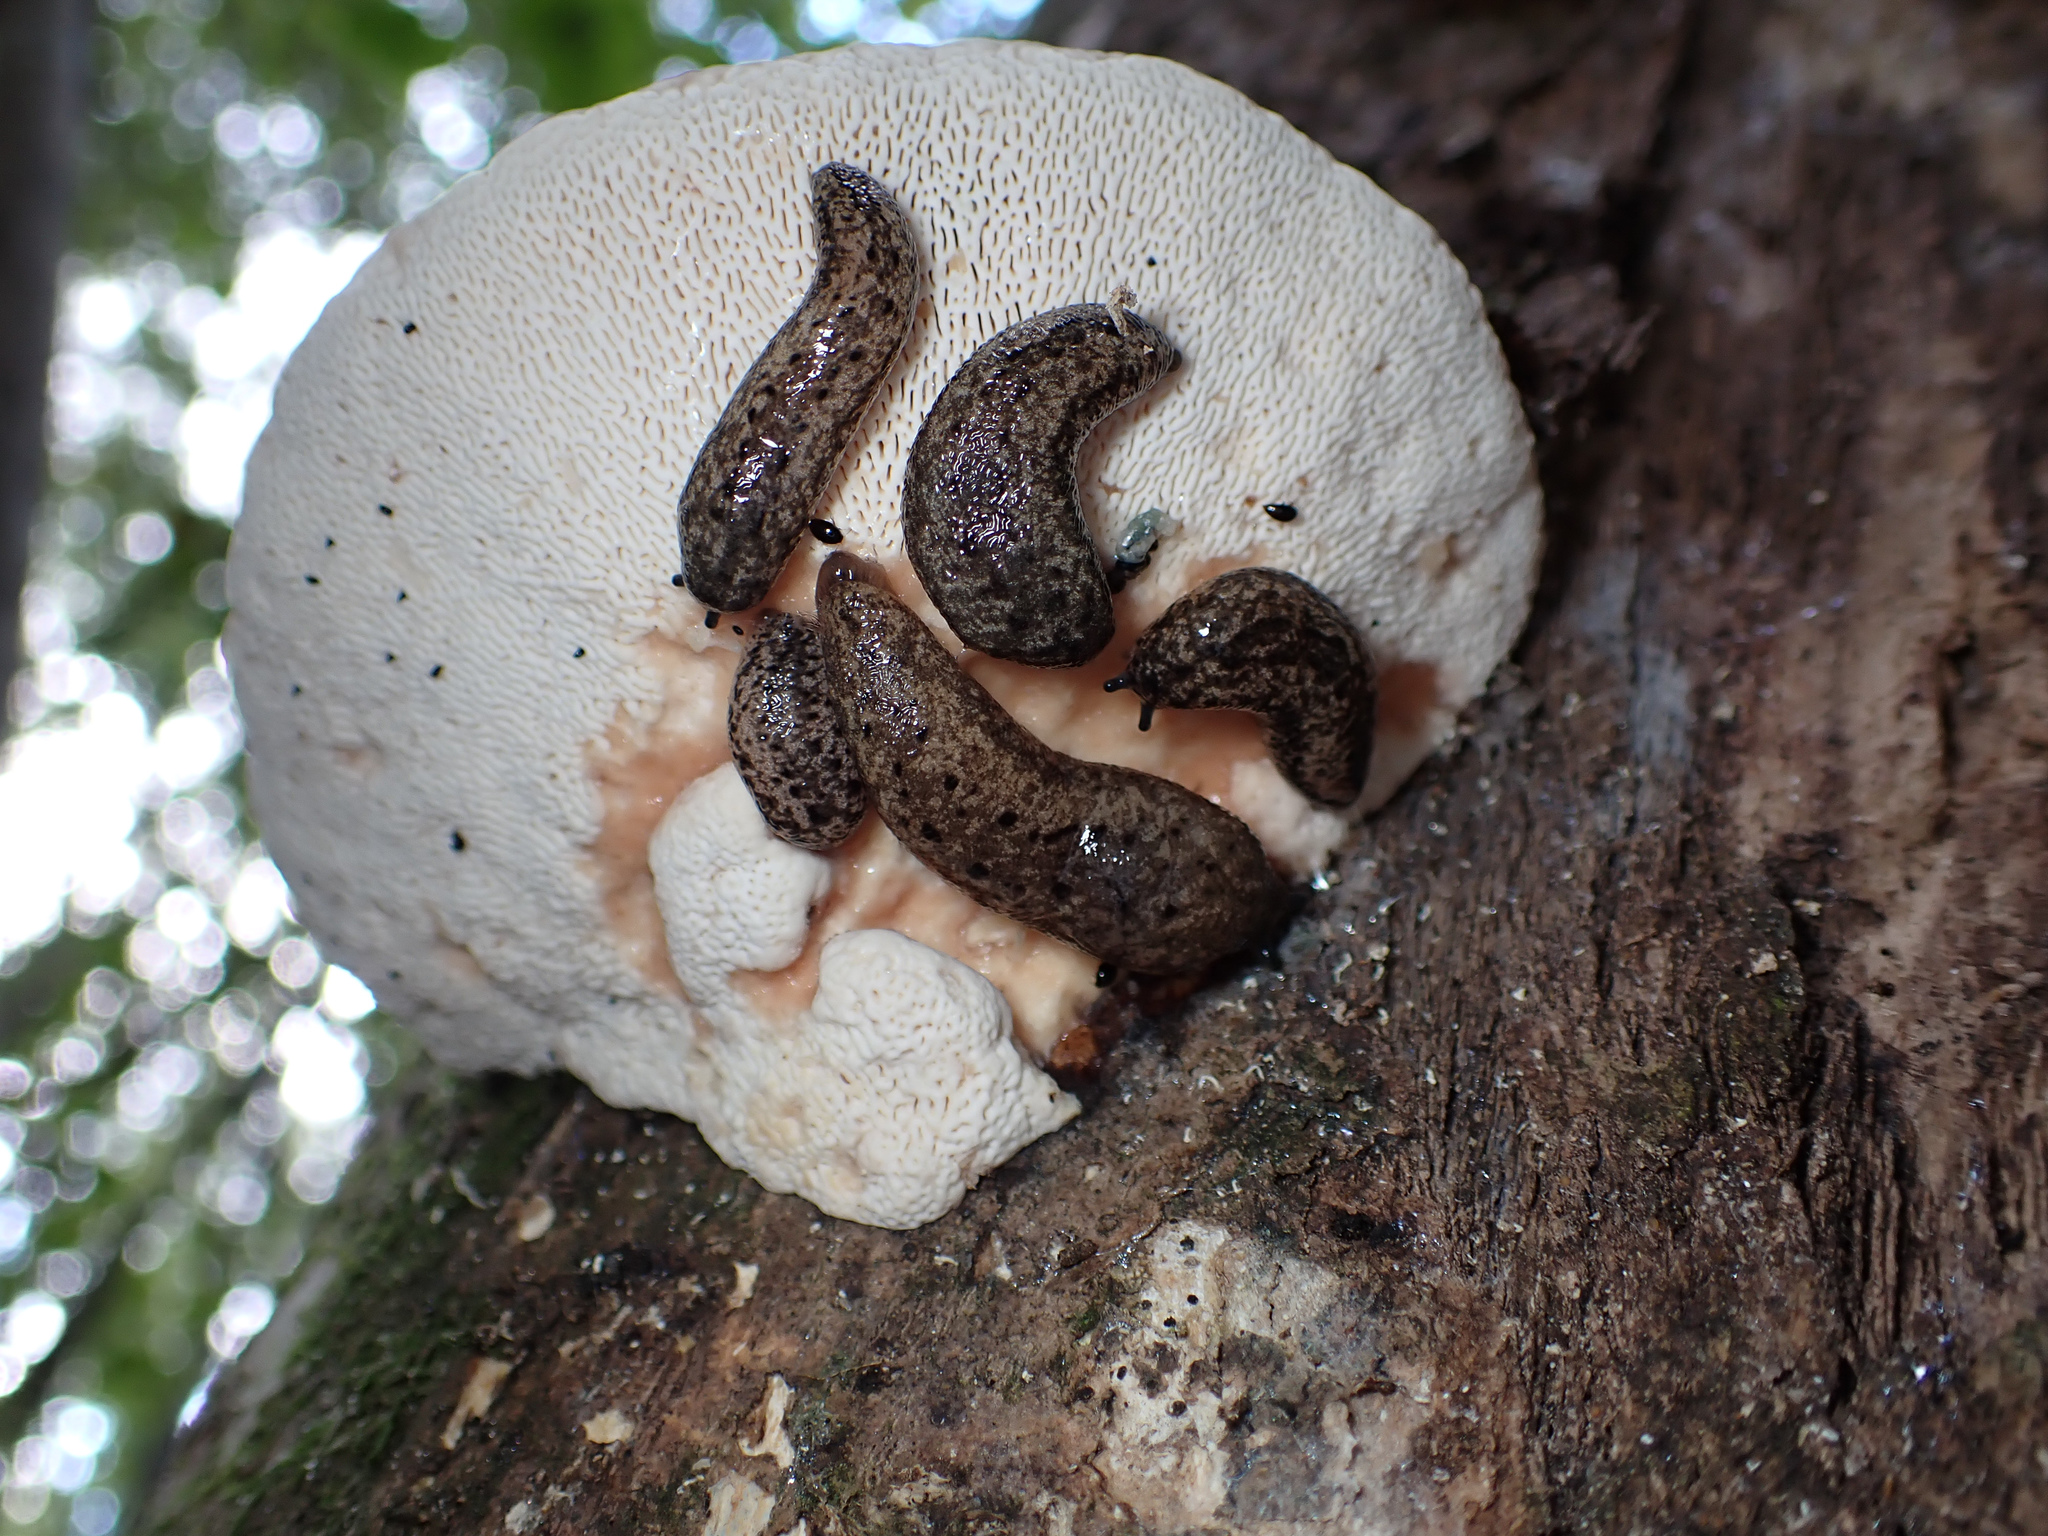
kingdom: Animalia
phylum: Mollusca
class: Gastropoda
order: Stylommatophora
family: Philomycidae
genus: Philomycus
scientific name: Philomycus carolinianus
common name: Carolina mantleslug
